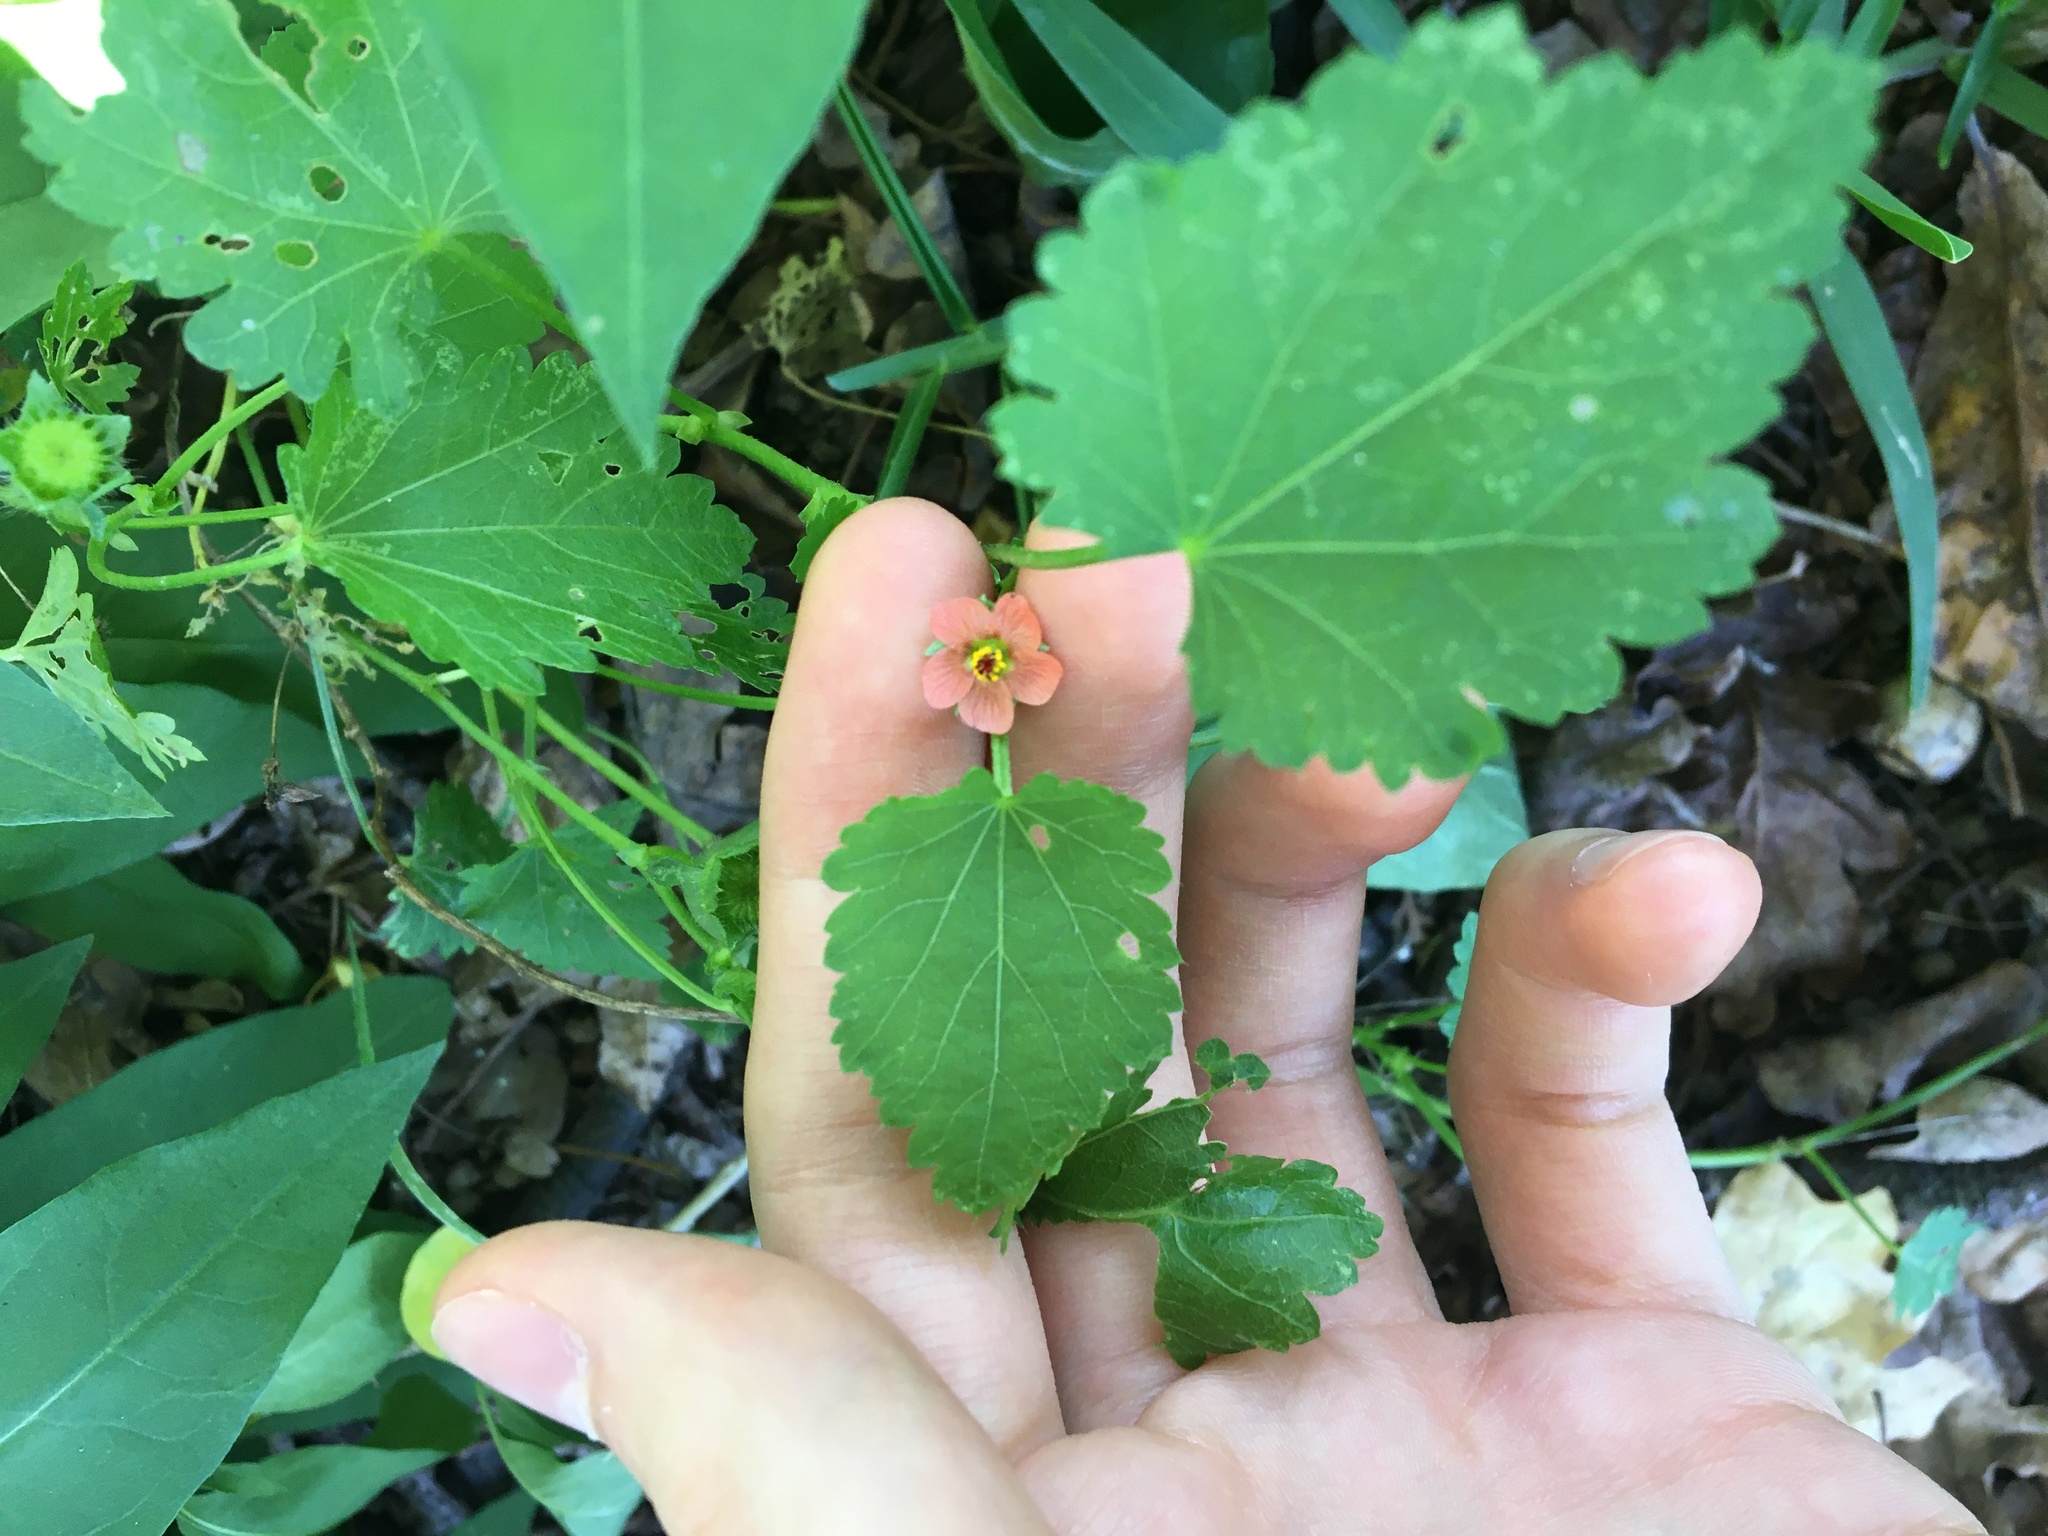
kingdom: Plantae
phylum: Tracheophyta
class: Magnoliopsida
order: Malvales
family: Malvaceae
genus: Modiola
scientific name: Modiola caroliniana
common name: Carolina bristlemallow
